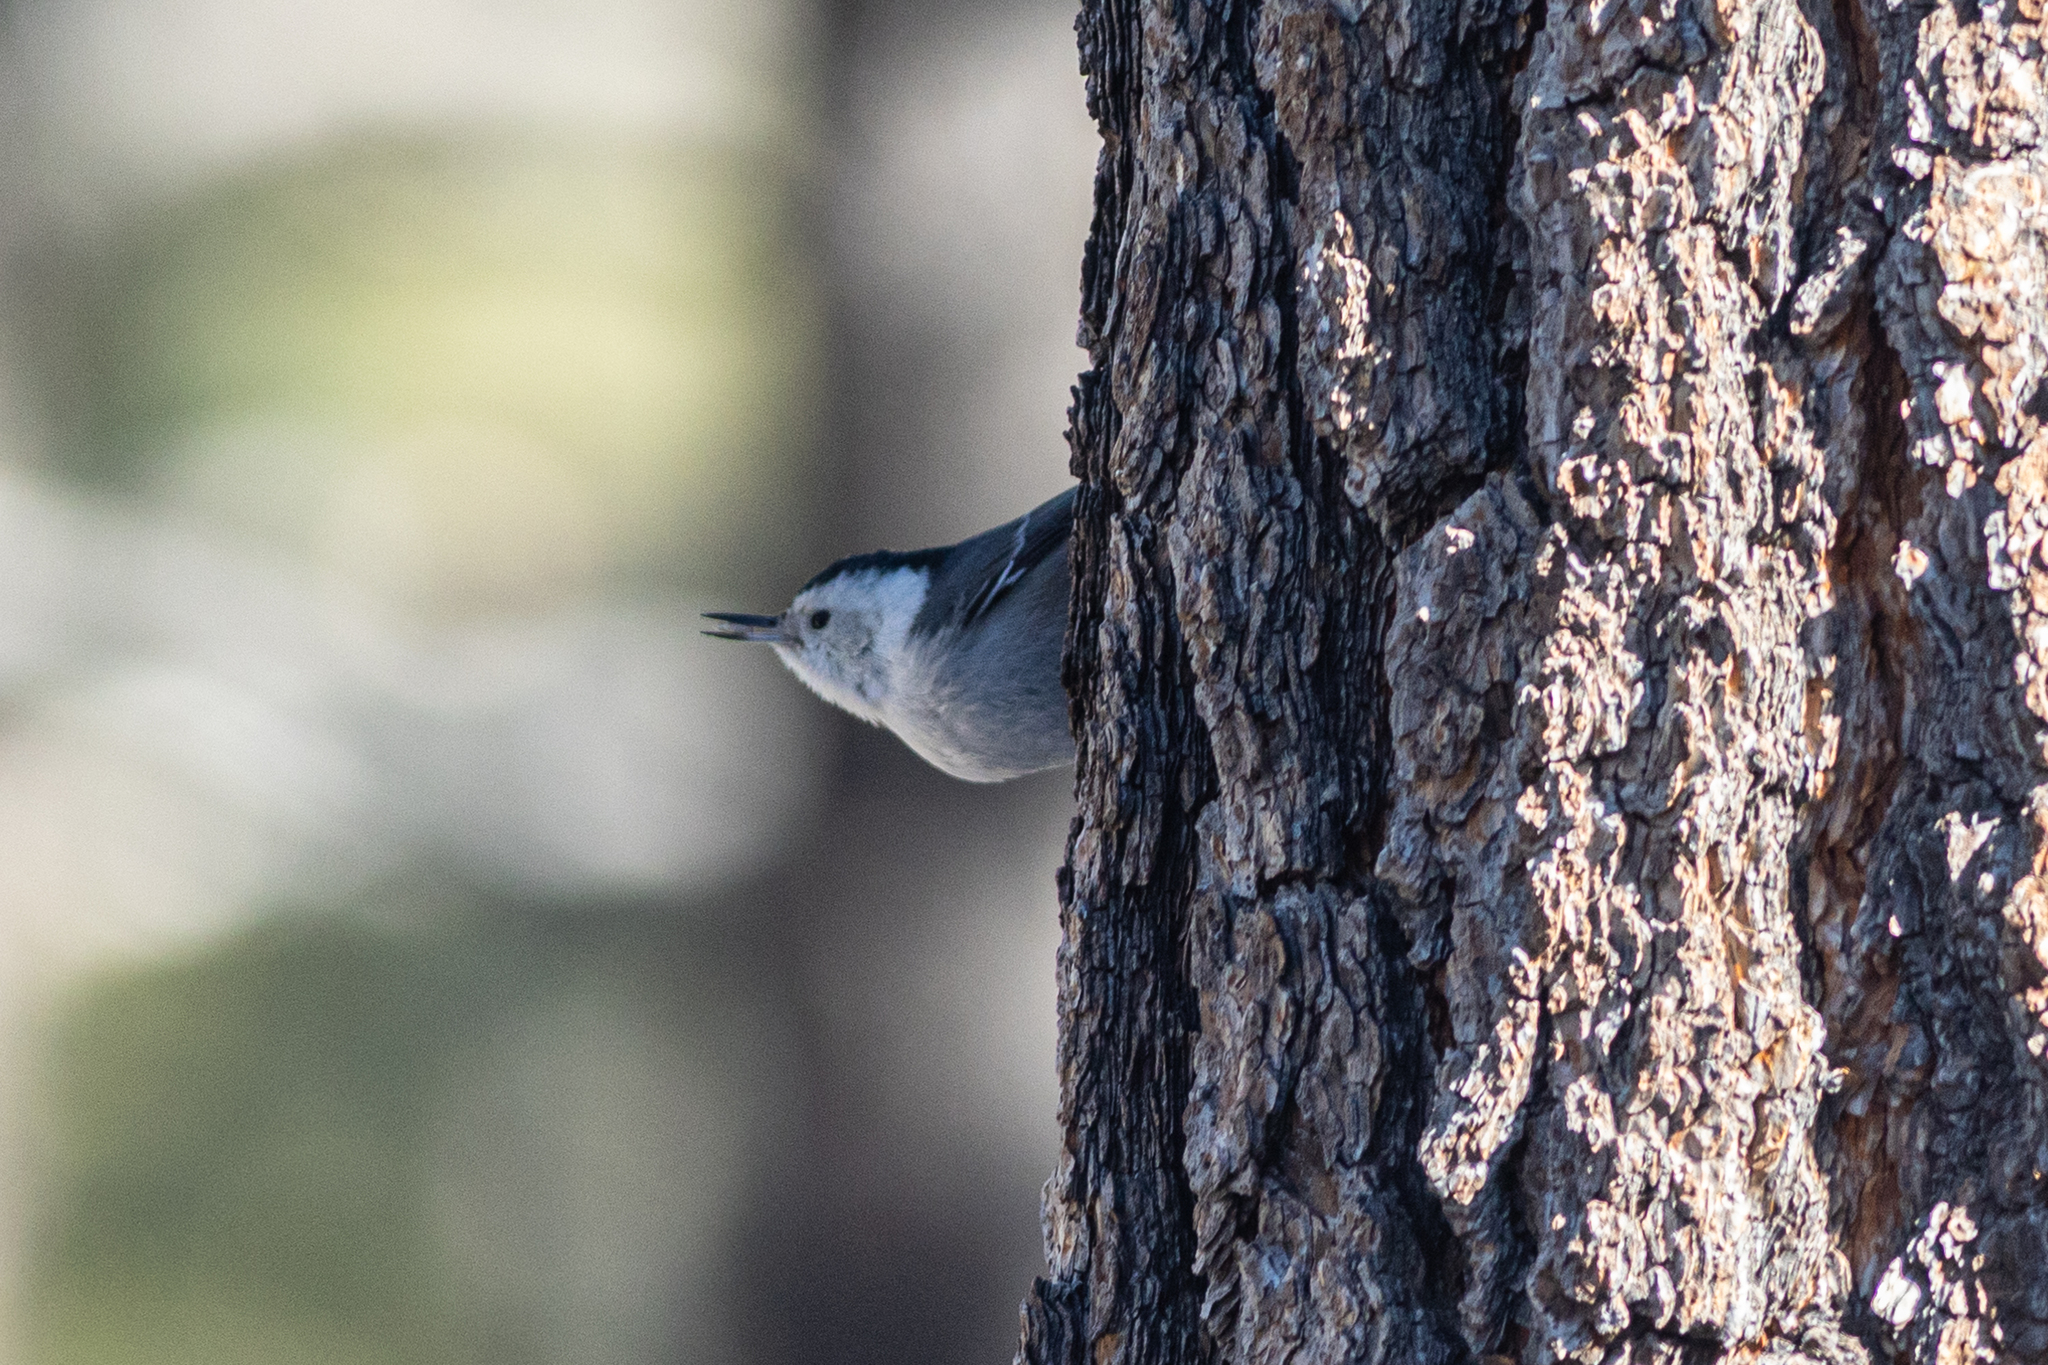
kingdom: Animalia
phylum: Chordata
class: Aves
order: Passeriformes
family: Sittidae
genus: Sitta
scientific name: Sitta carolinensis
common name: White-breasted nuthatch
